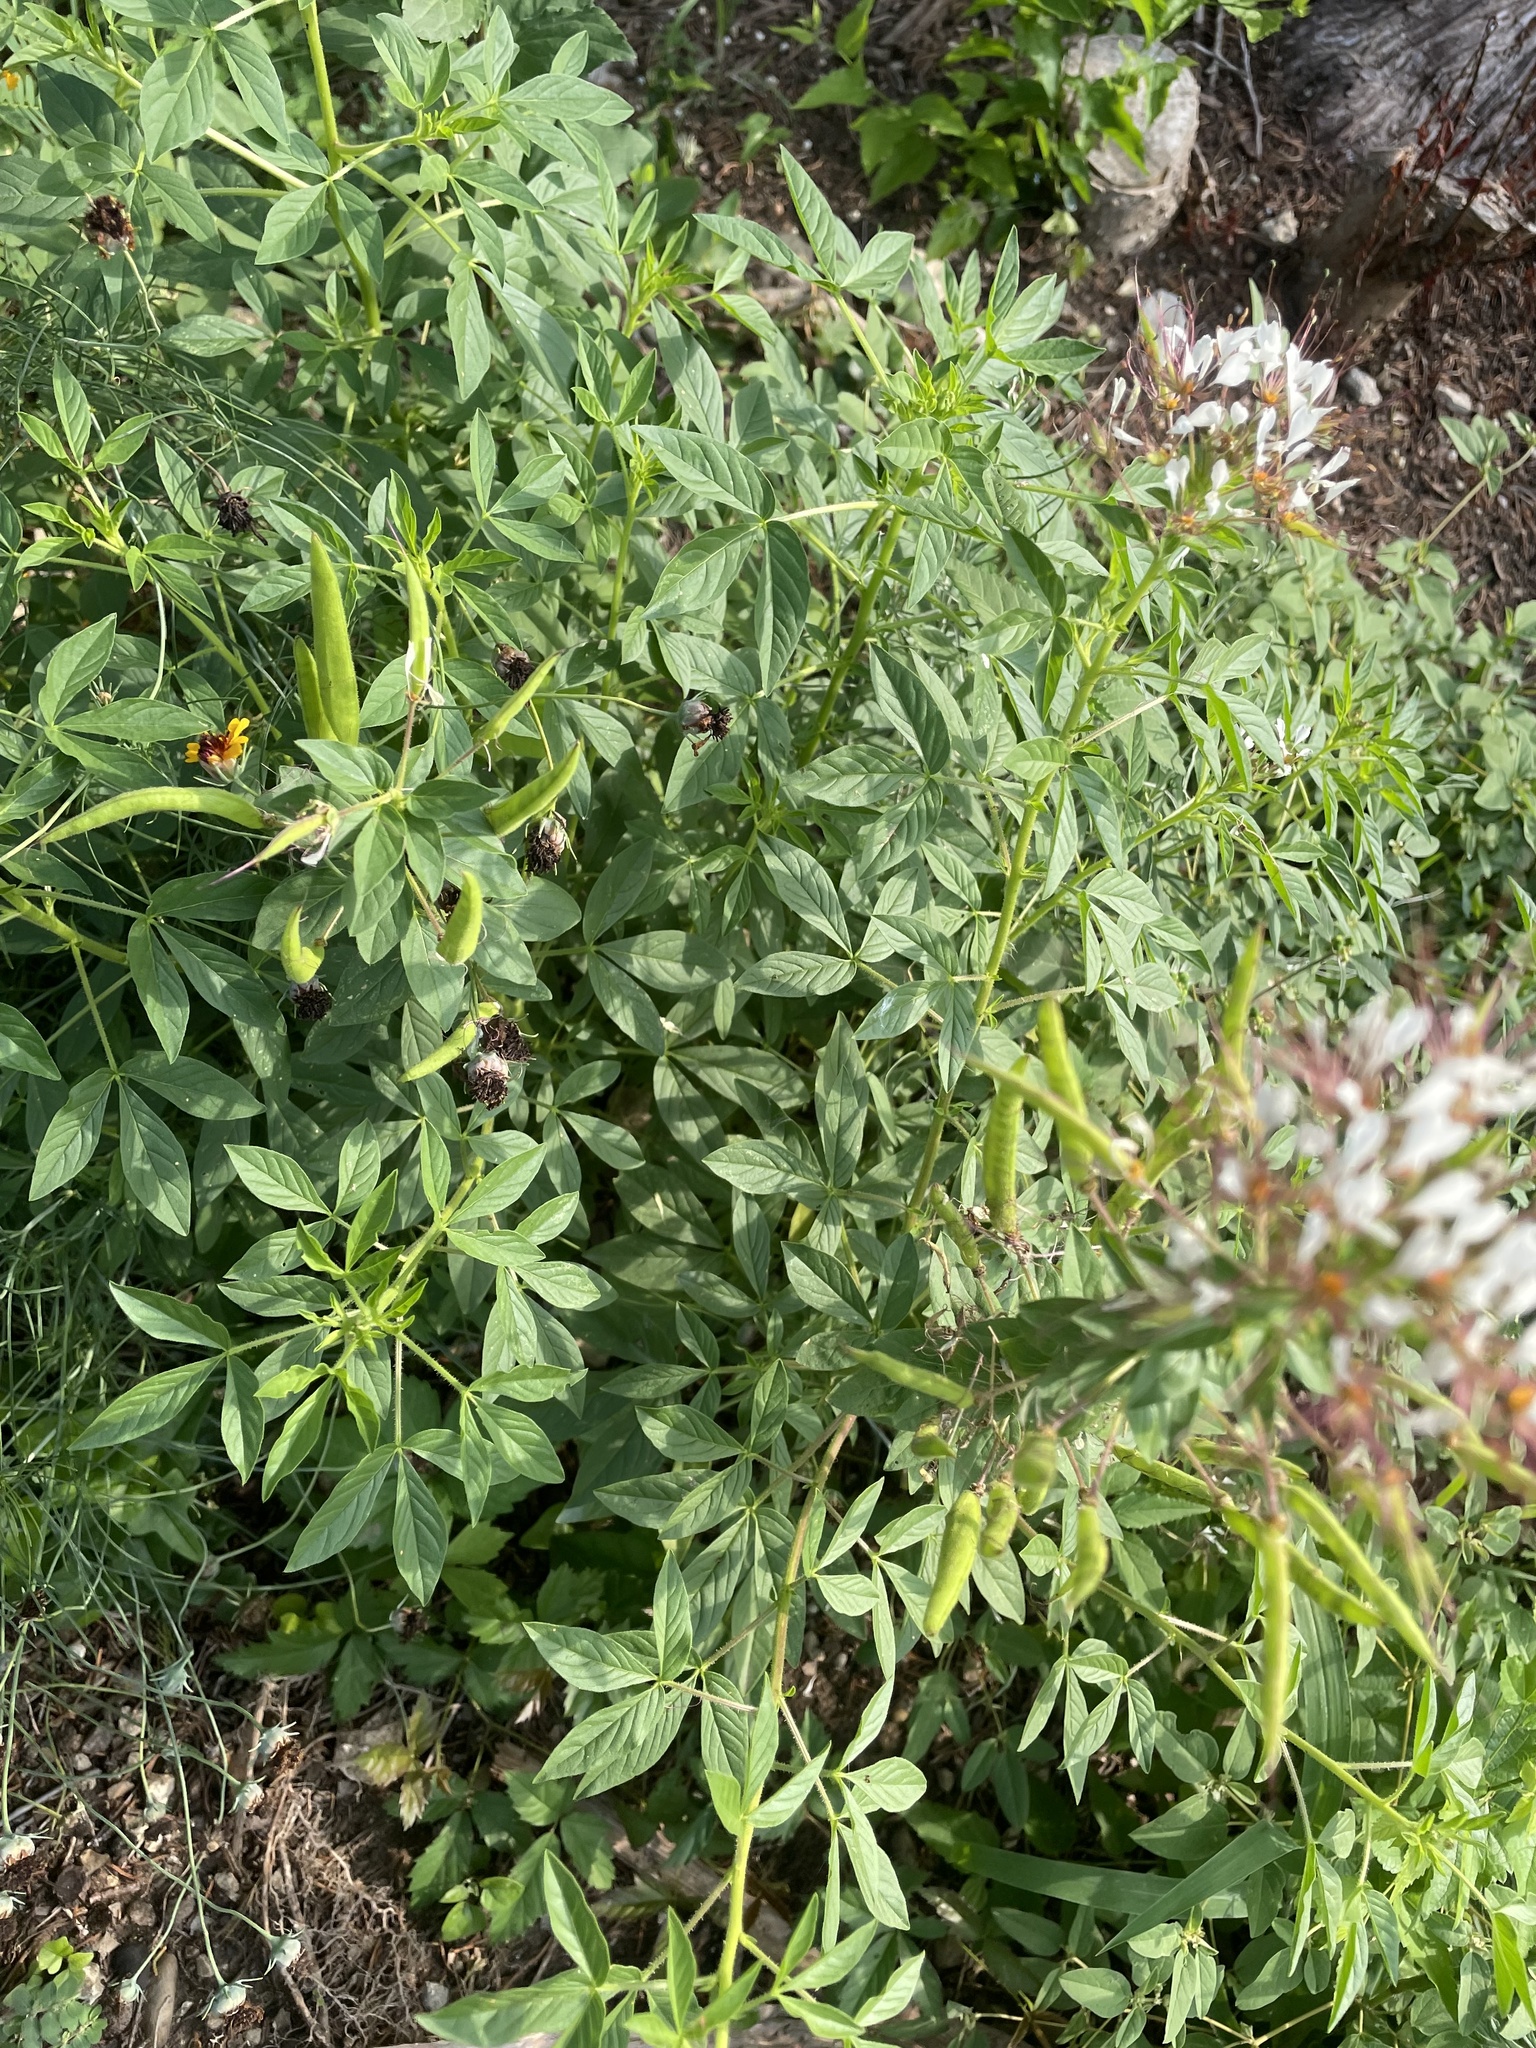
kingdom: Plantae
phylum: Tracheophyta
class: Magnoliopsida
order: Brassicales
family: Cleomaceae
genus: Polanisia
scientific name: Polanisia dodecandra
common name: Clammyweed
